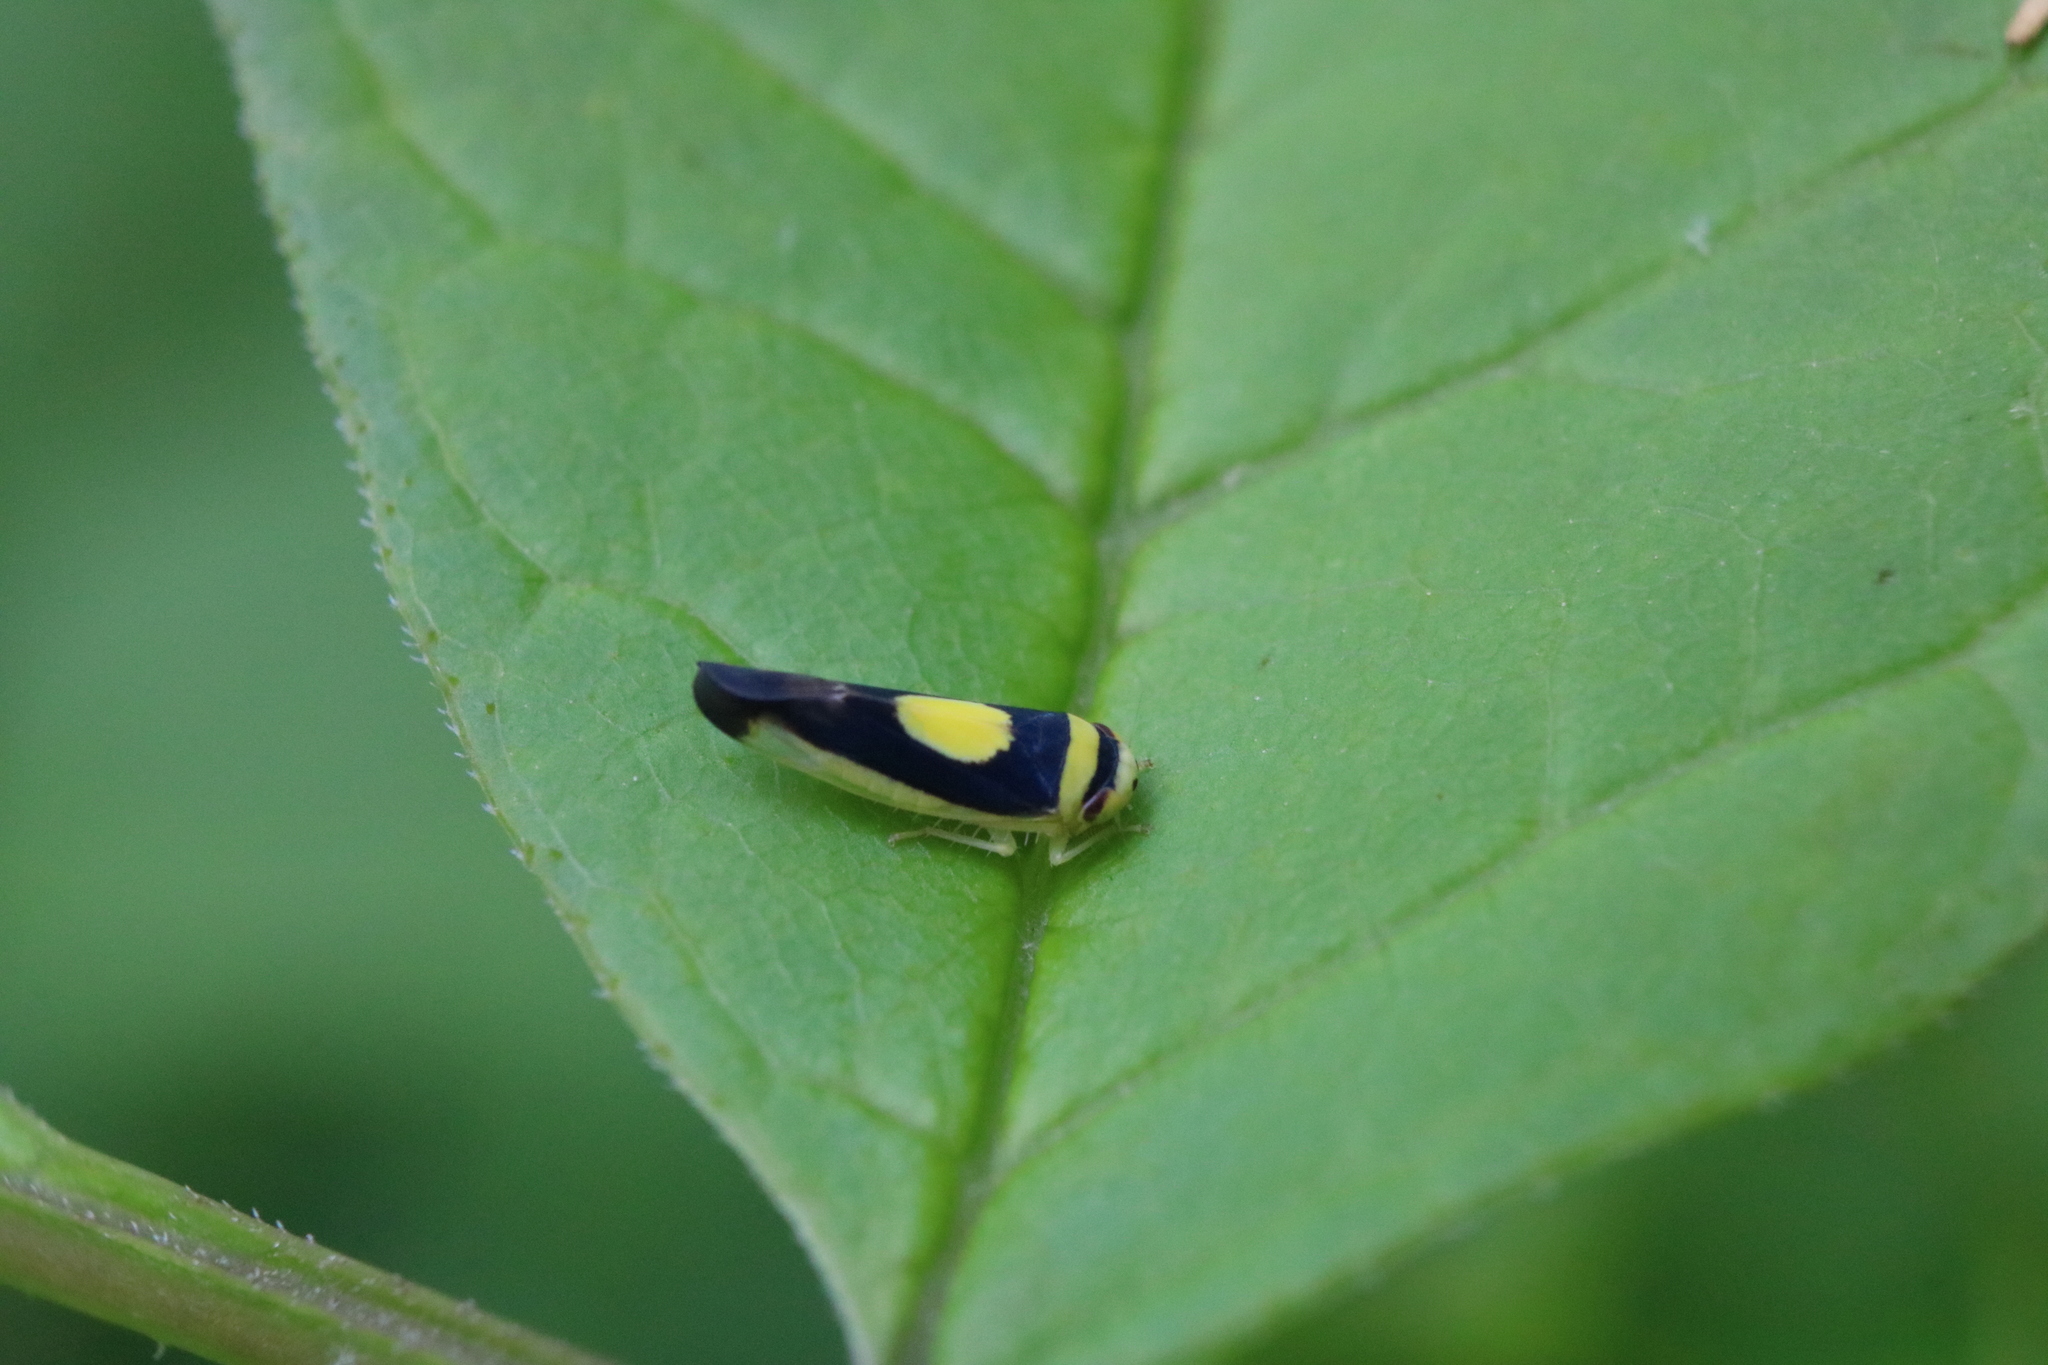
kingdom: Animalia
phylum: Arthropoda
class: Insecta
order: Hemiptera
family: Cicadellidae
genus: Colladonus
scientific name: Colladonus clitellarius
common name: The saddleback leafhopper
